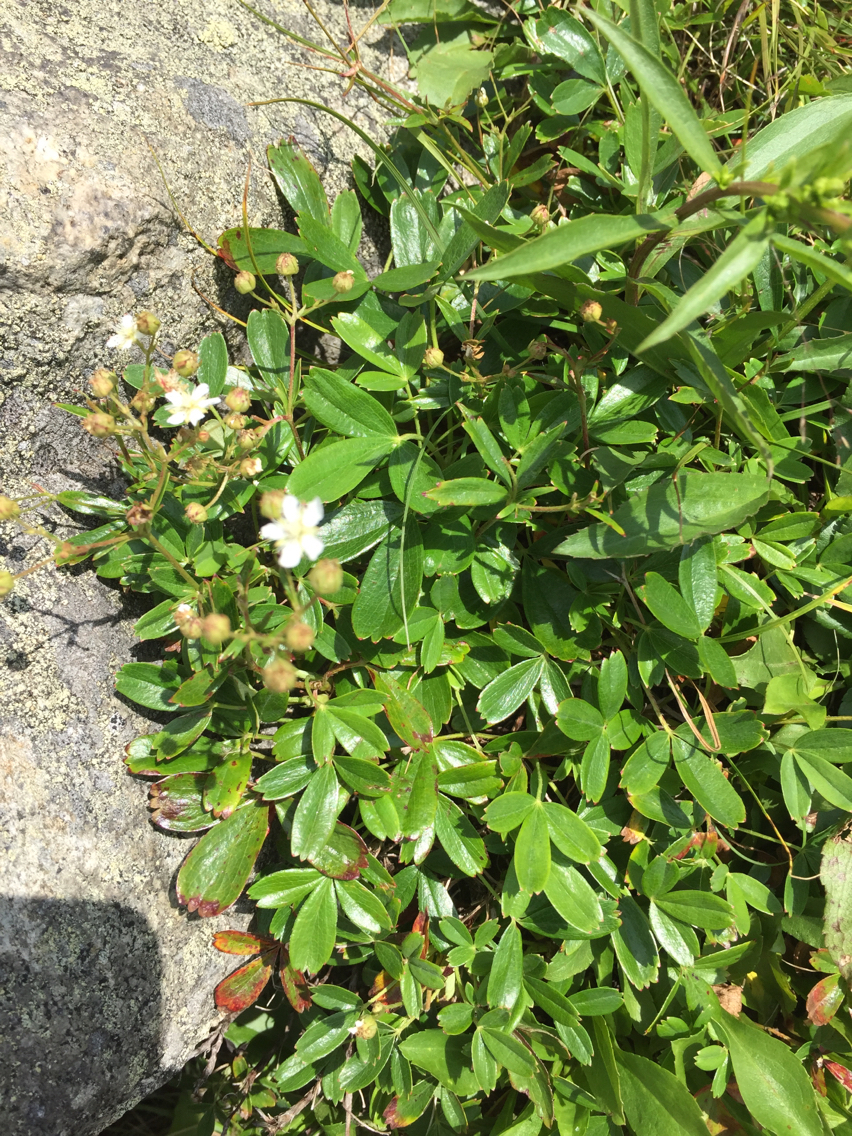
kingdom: Plantae
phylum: Tracheophyta
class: Magnoliopsida
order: Rosales
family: Rosaceae
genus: Sibbaldia
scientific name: Sibbaldia tridentata
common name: Three-toothed cinquefoil
